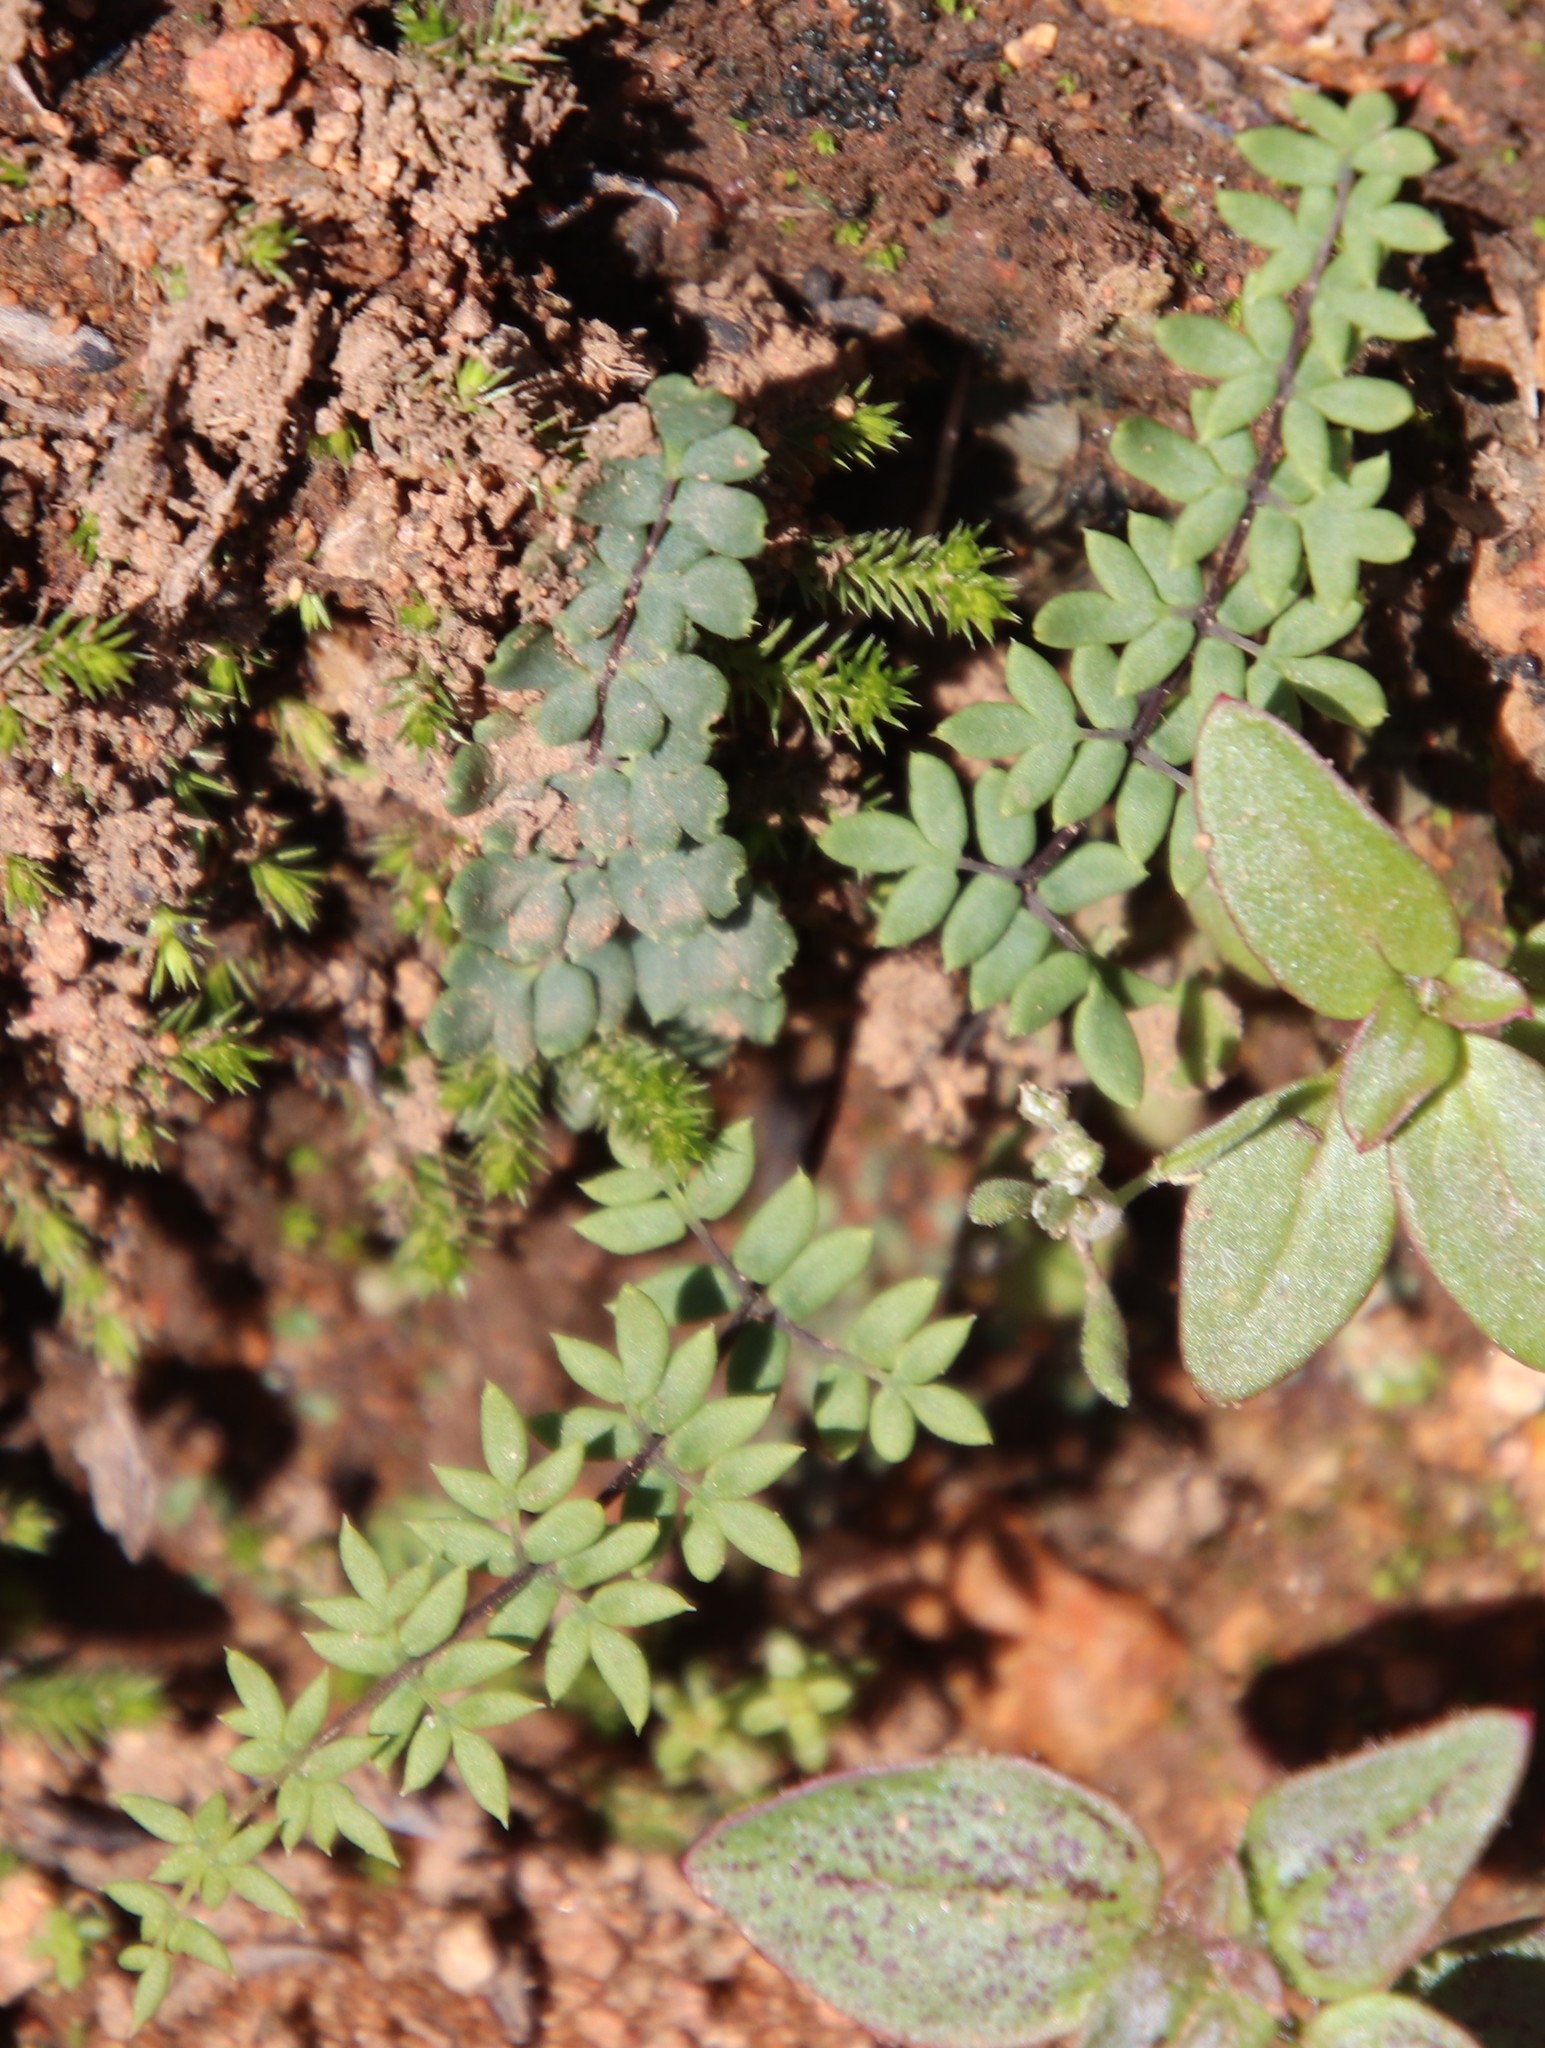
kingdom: Plantae
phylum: Tracheophyta
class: Polypodiopsida
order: Polypodiales
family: Pteridaceae
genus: Pellaea
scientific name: Pellaea mucronata
